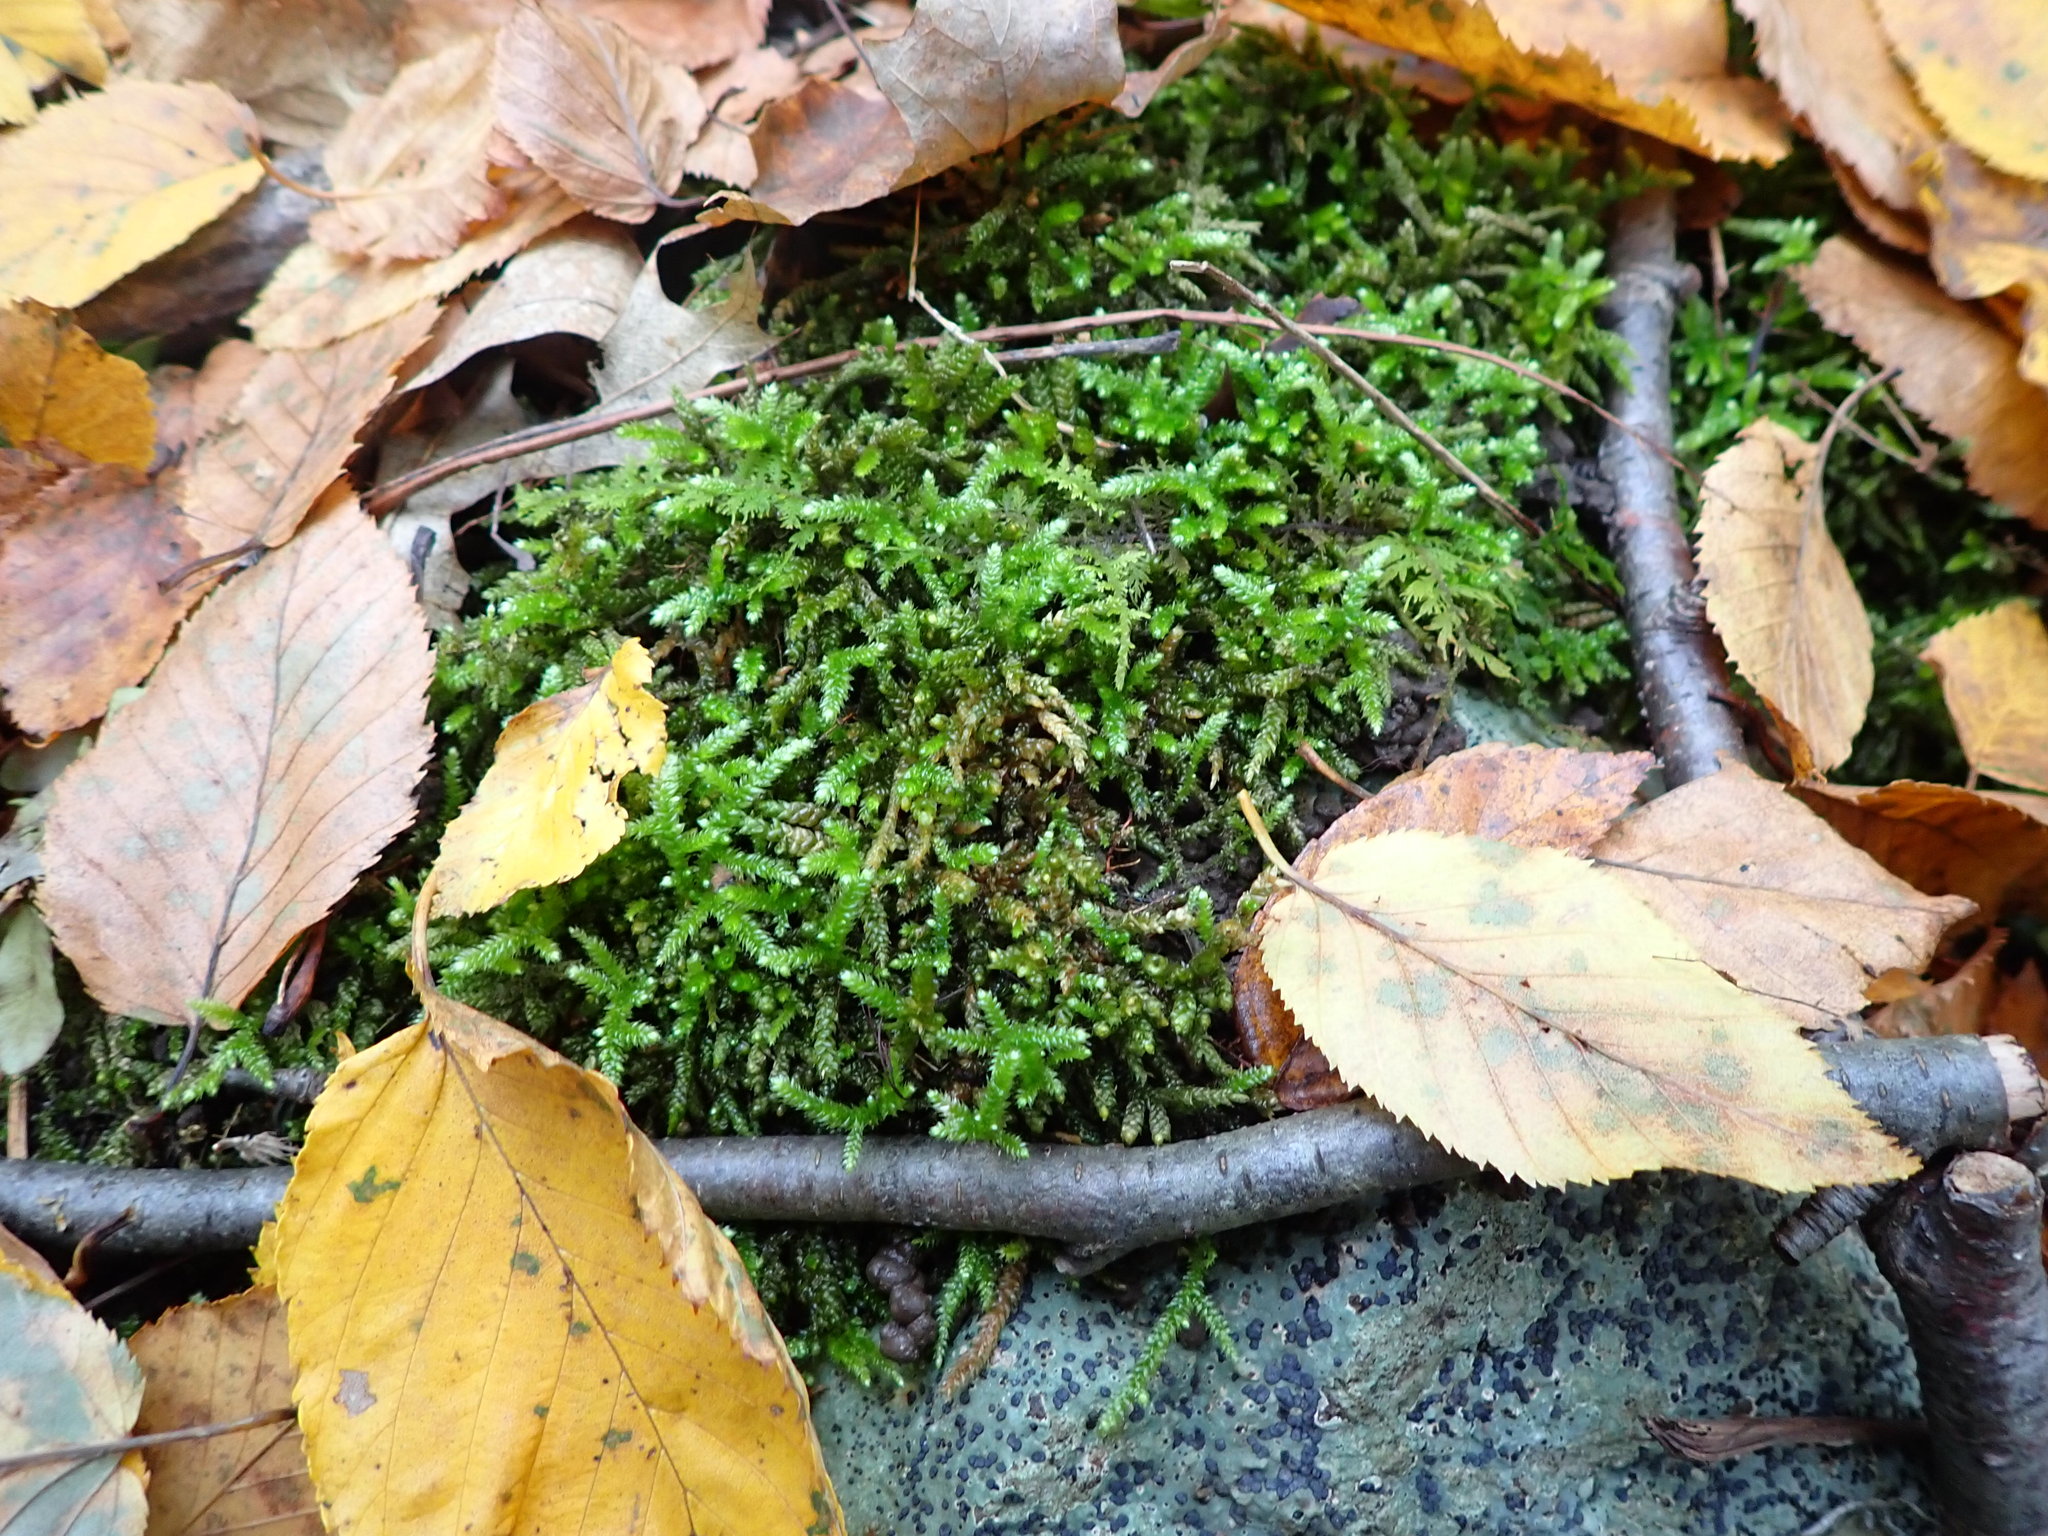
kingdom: Plantae
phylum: Bryophyta
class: Bryopsida
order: Hypnales
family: Brachytheciaceae
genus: Bryoandersonia
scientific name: Bryoandersonia illecebra
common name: Spoon-leaved moss
